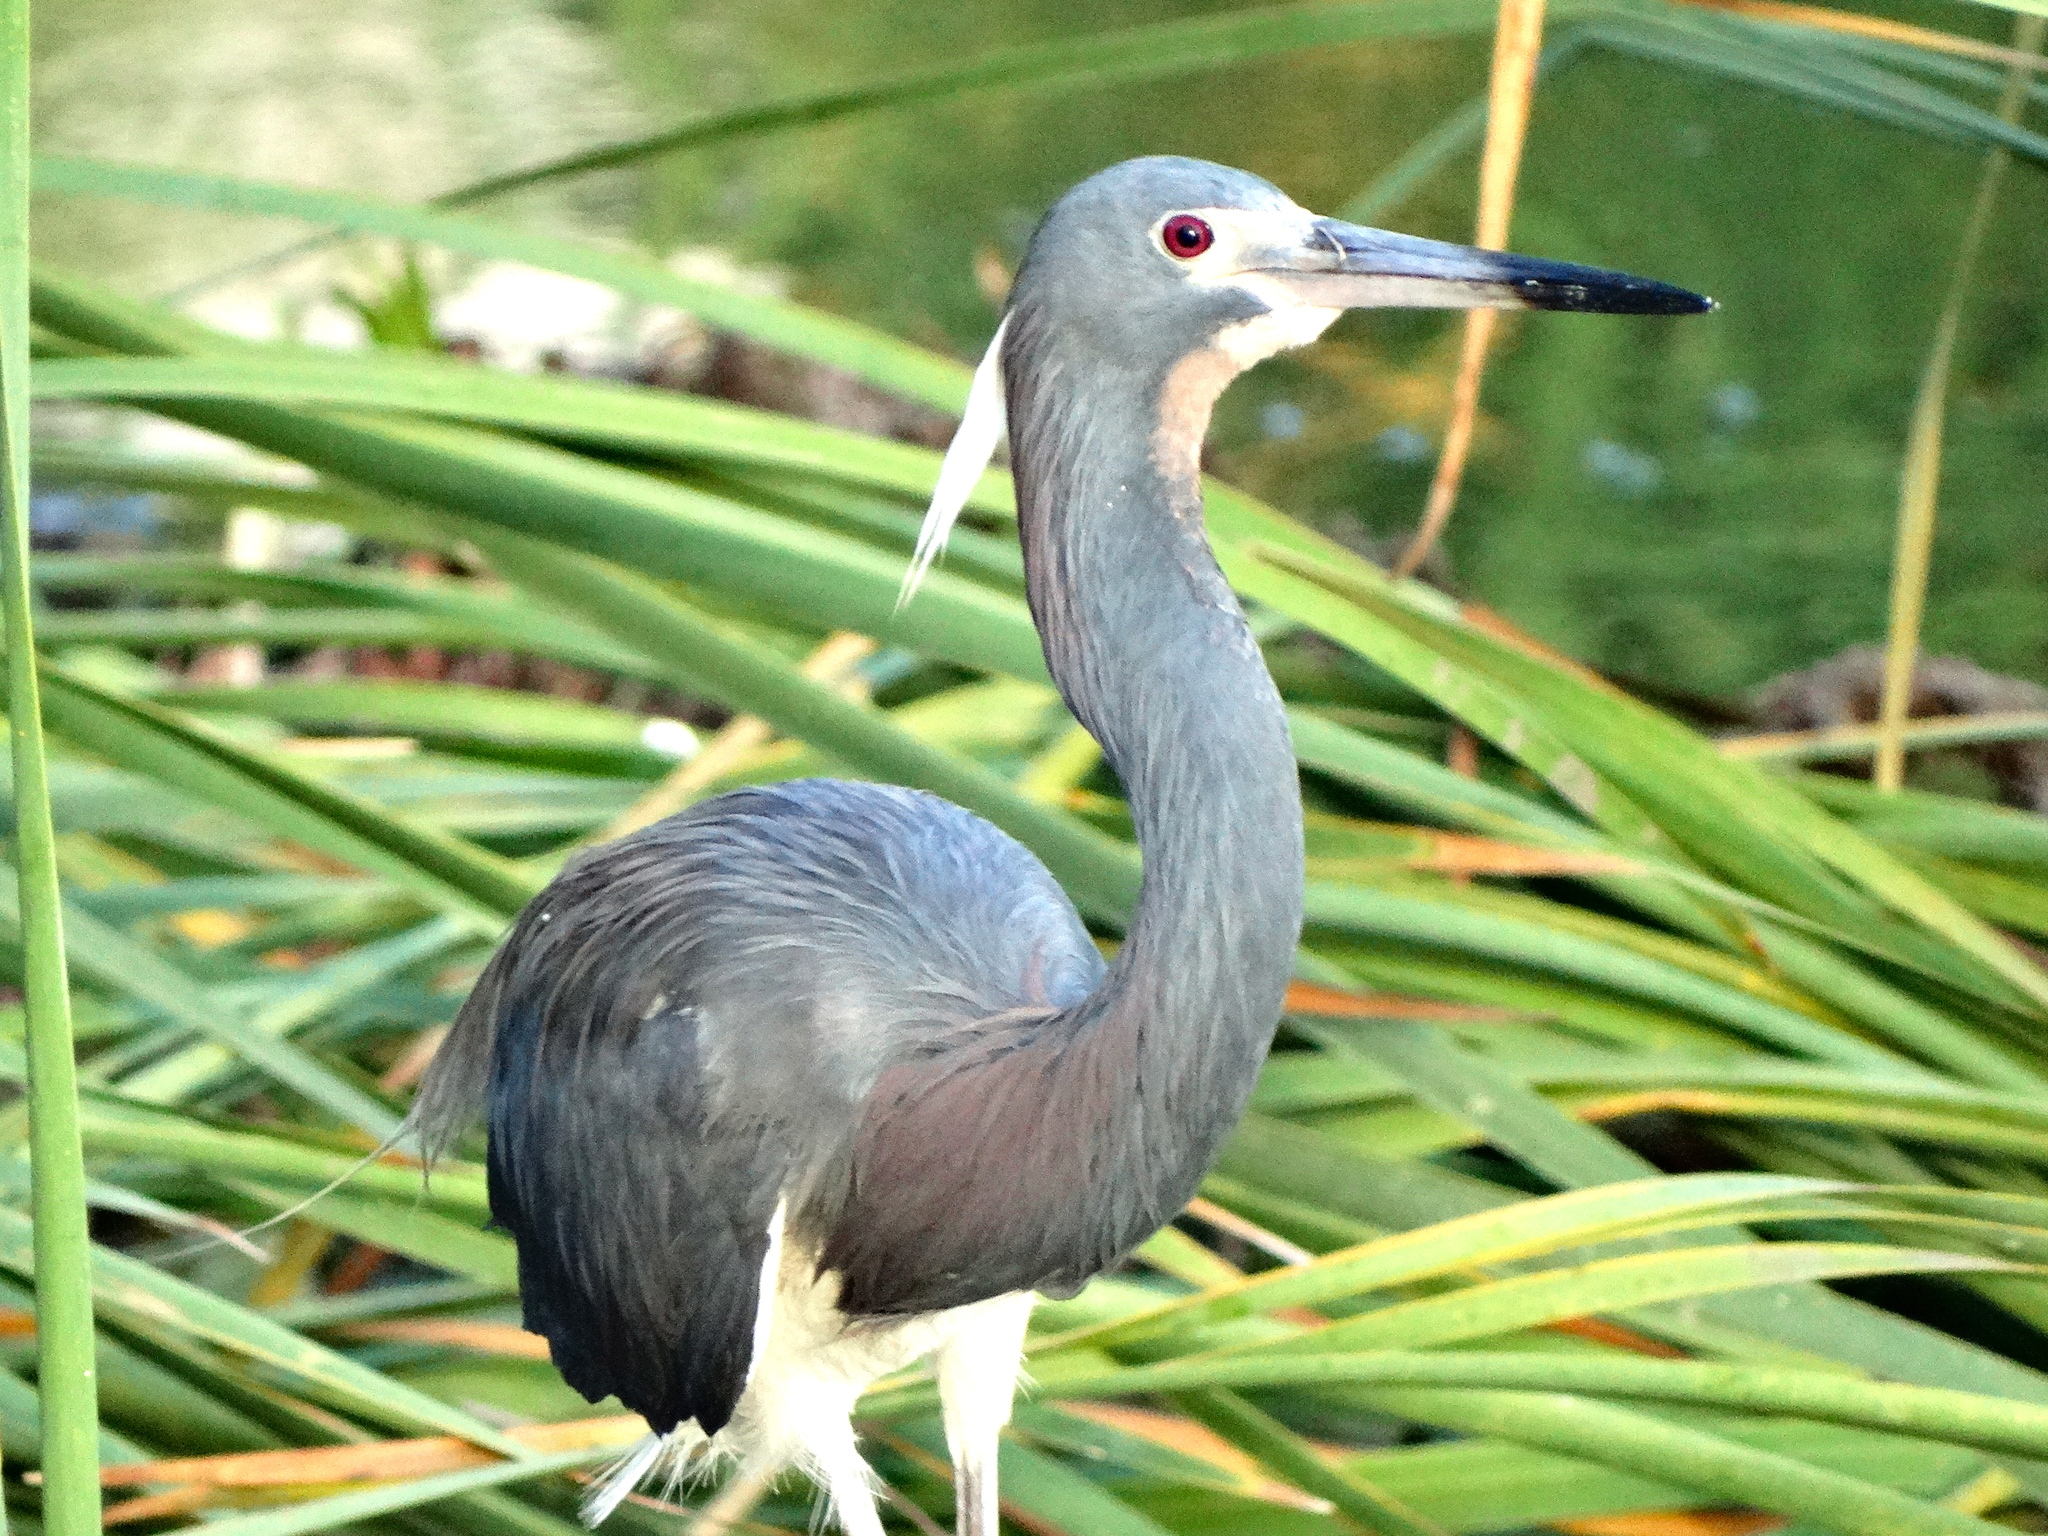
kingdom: Animalia
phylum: Chordata
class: Aves
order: Pelecaniformes
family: Ardeidae
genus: Egretta
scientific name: Egretta tricolor
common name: Tricolored heron
